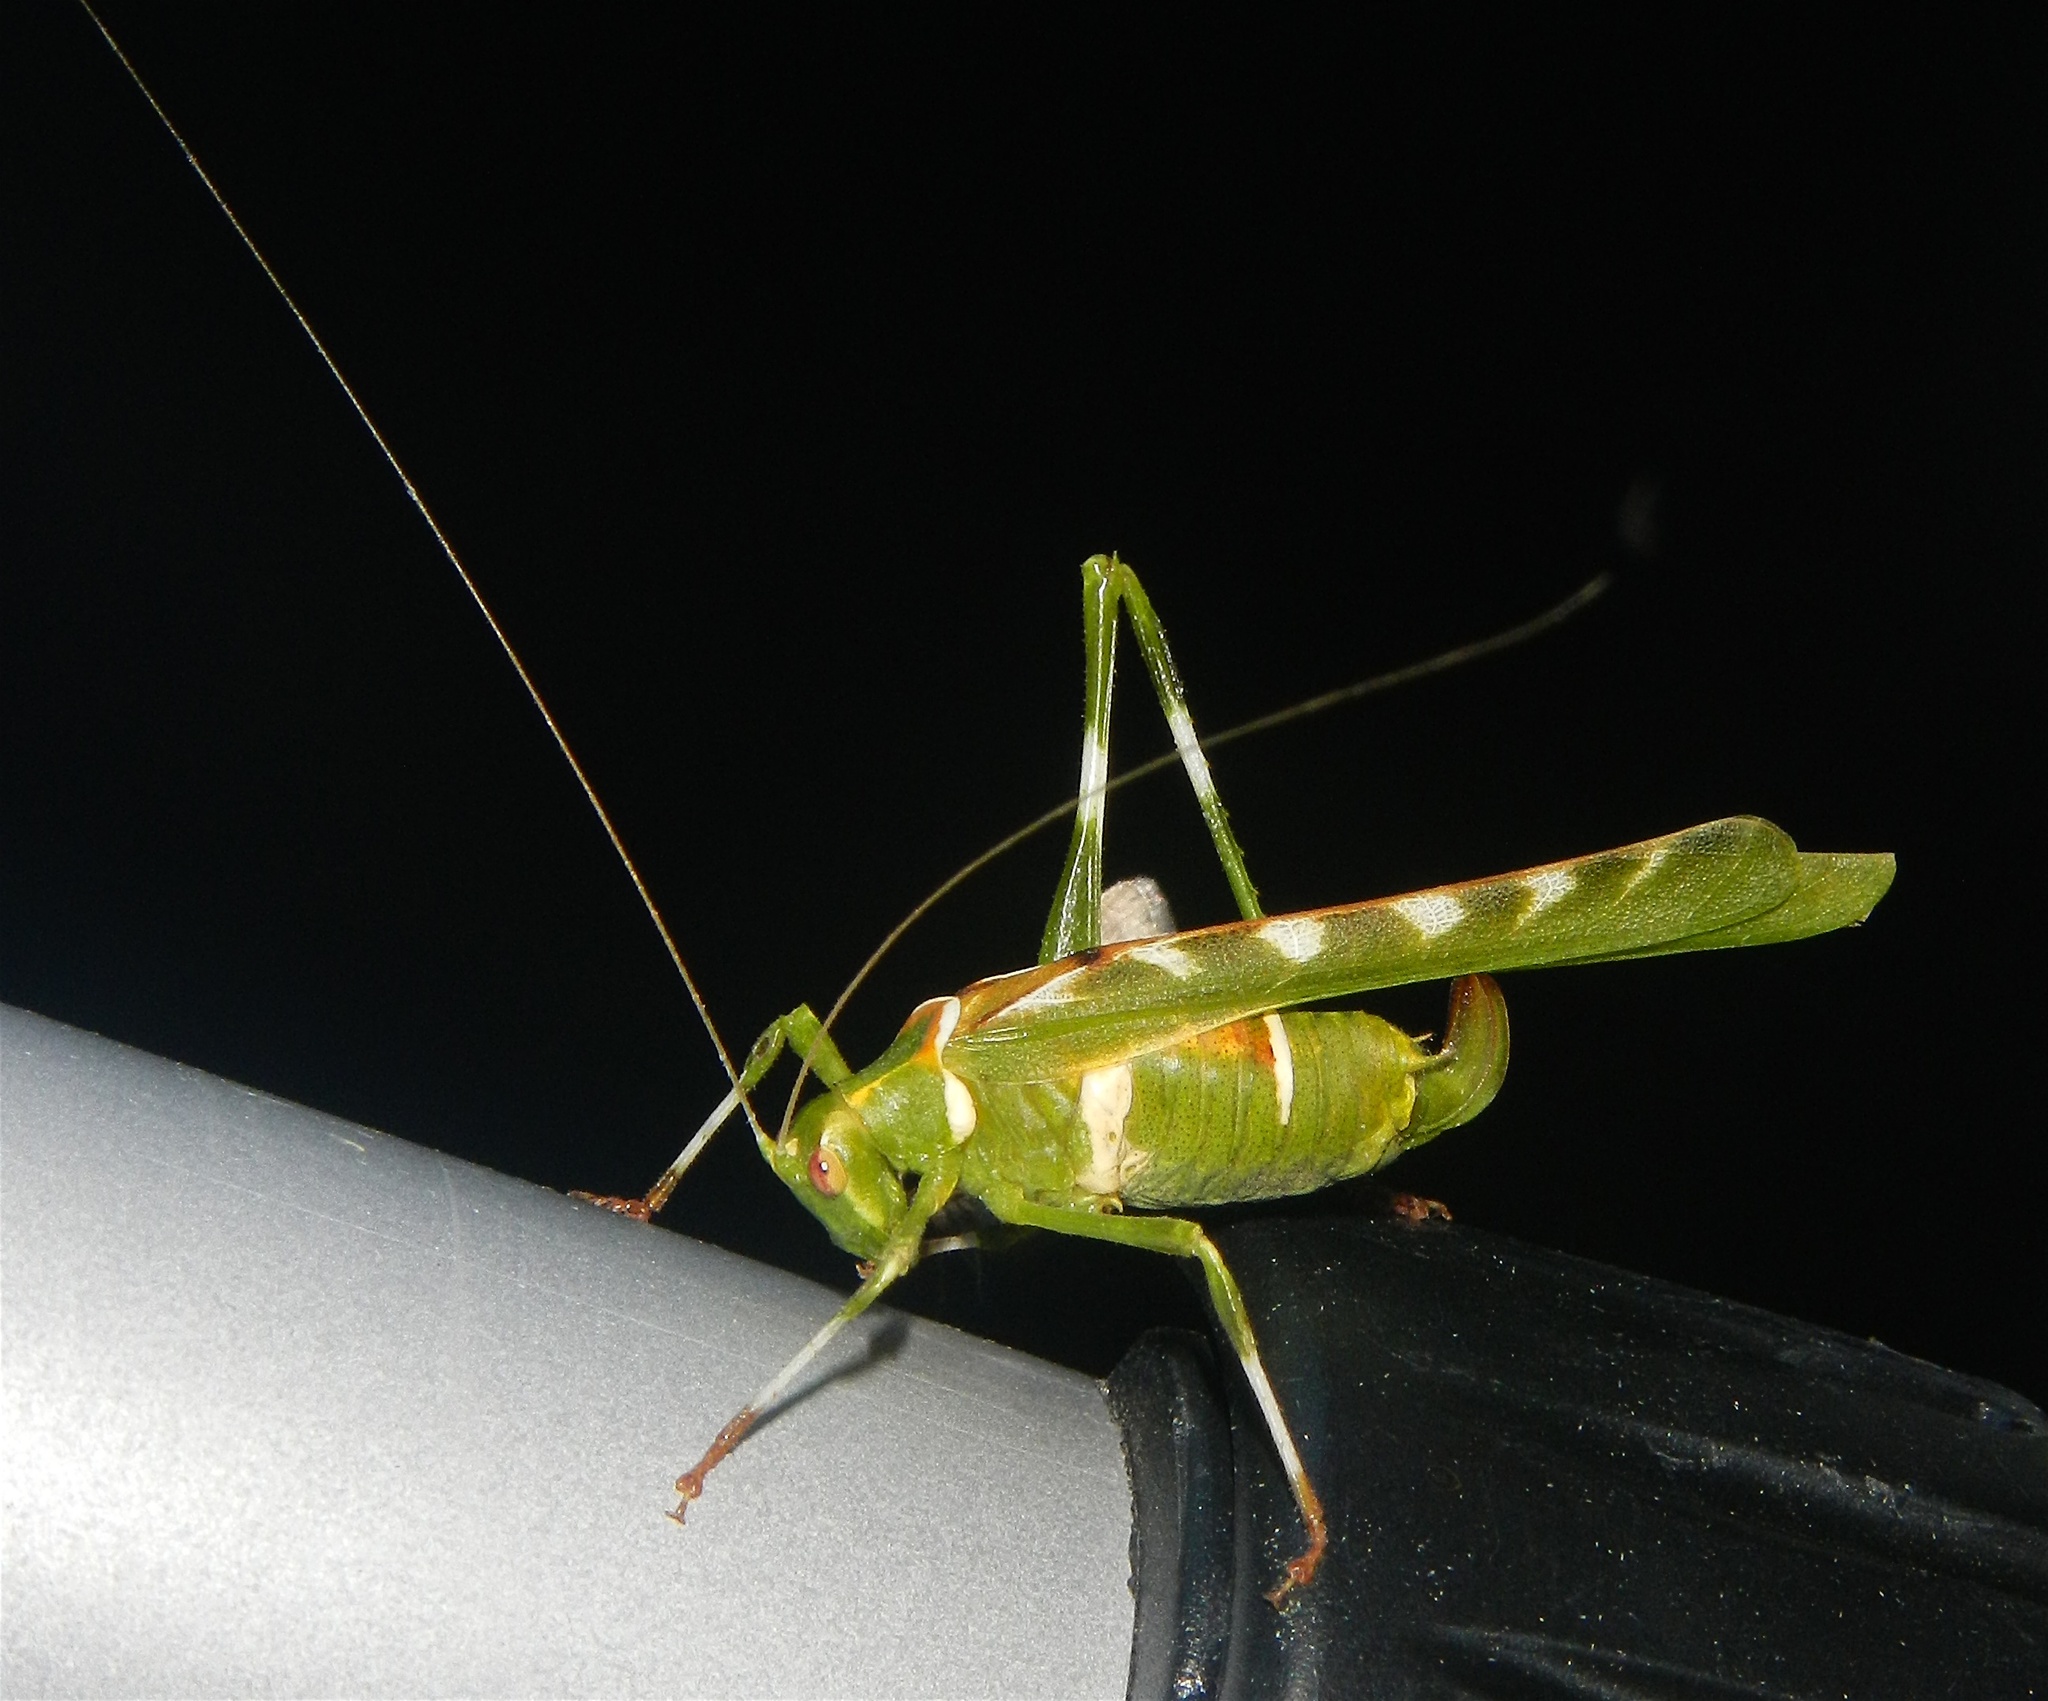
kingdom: Animalia
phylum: Arthropoda
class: Insecta
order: Orthoptera
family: Tettigoniidae
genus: Insara
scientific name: Insara covilleae
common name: Creosote bush katydid
